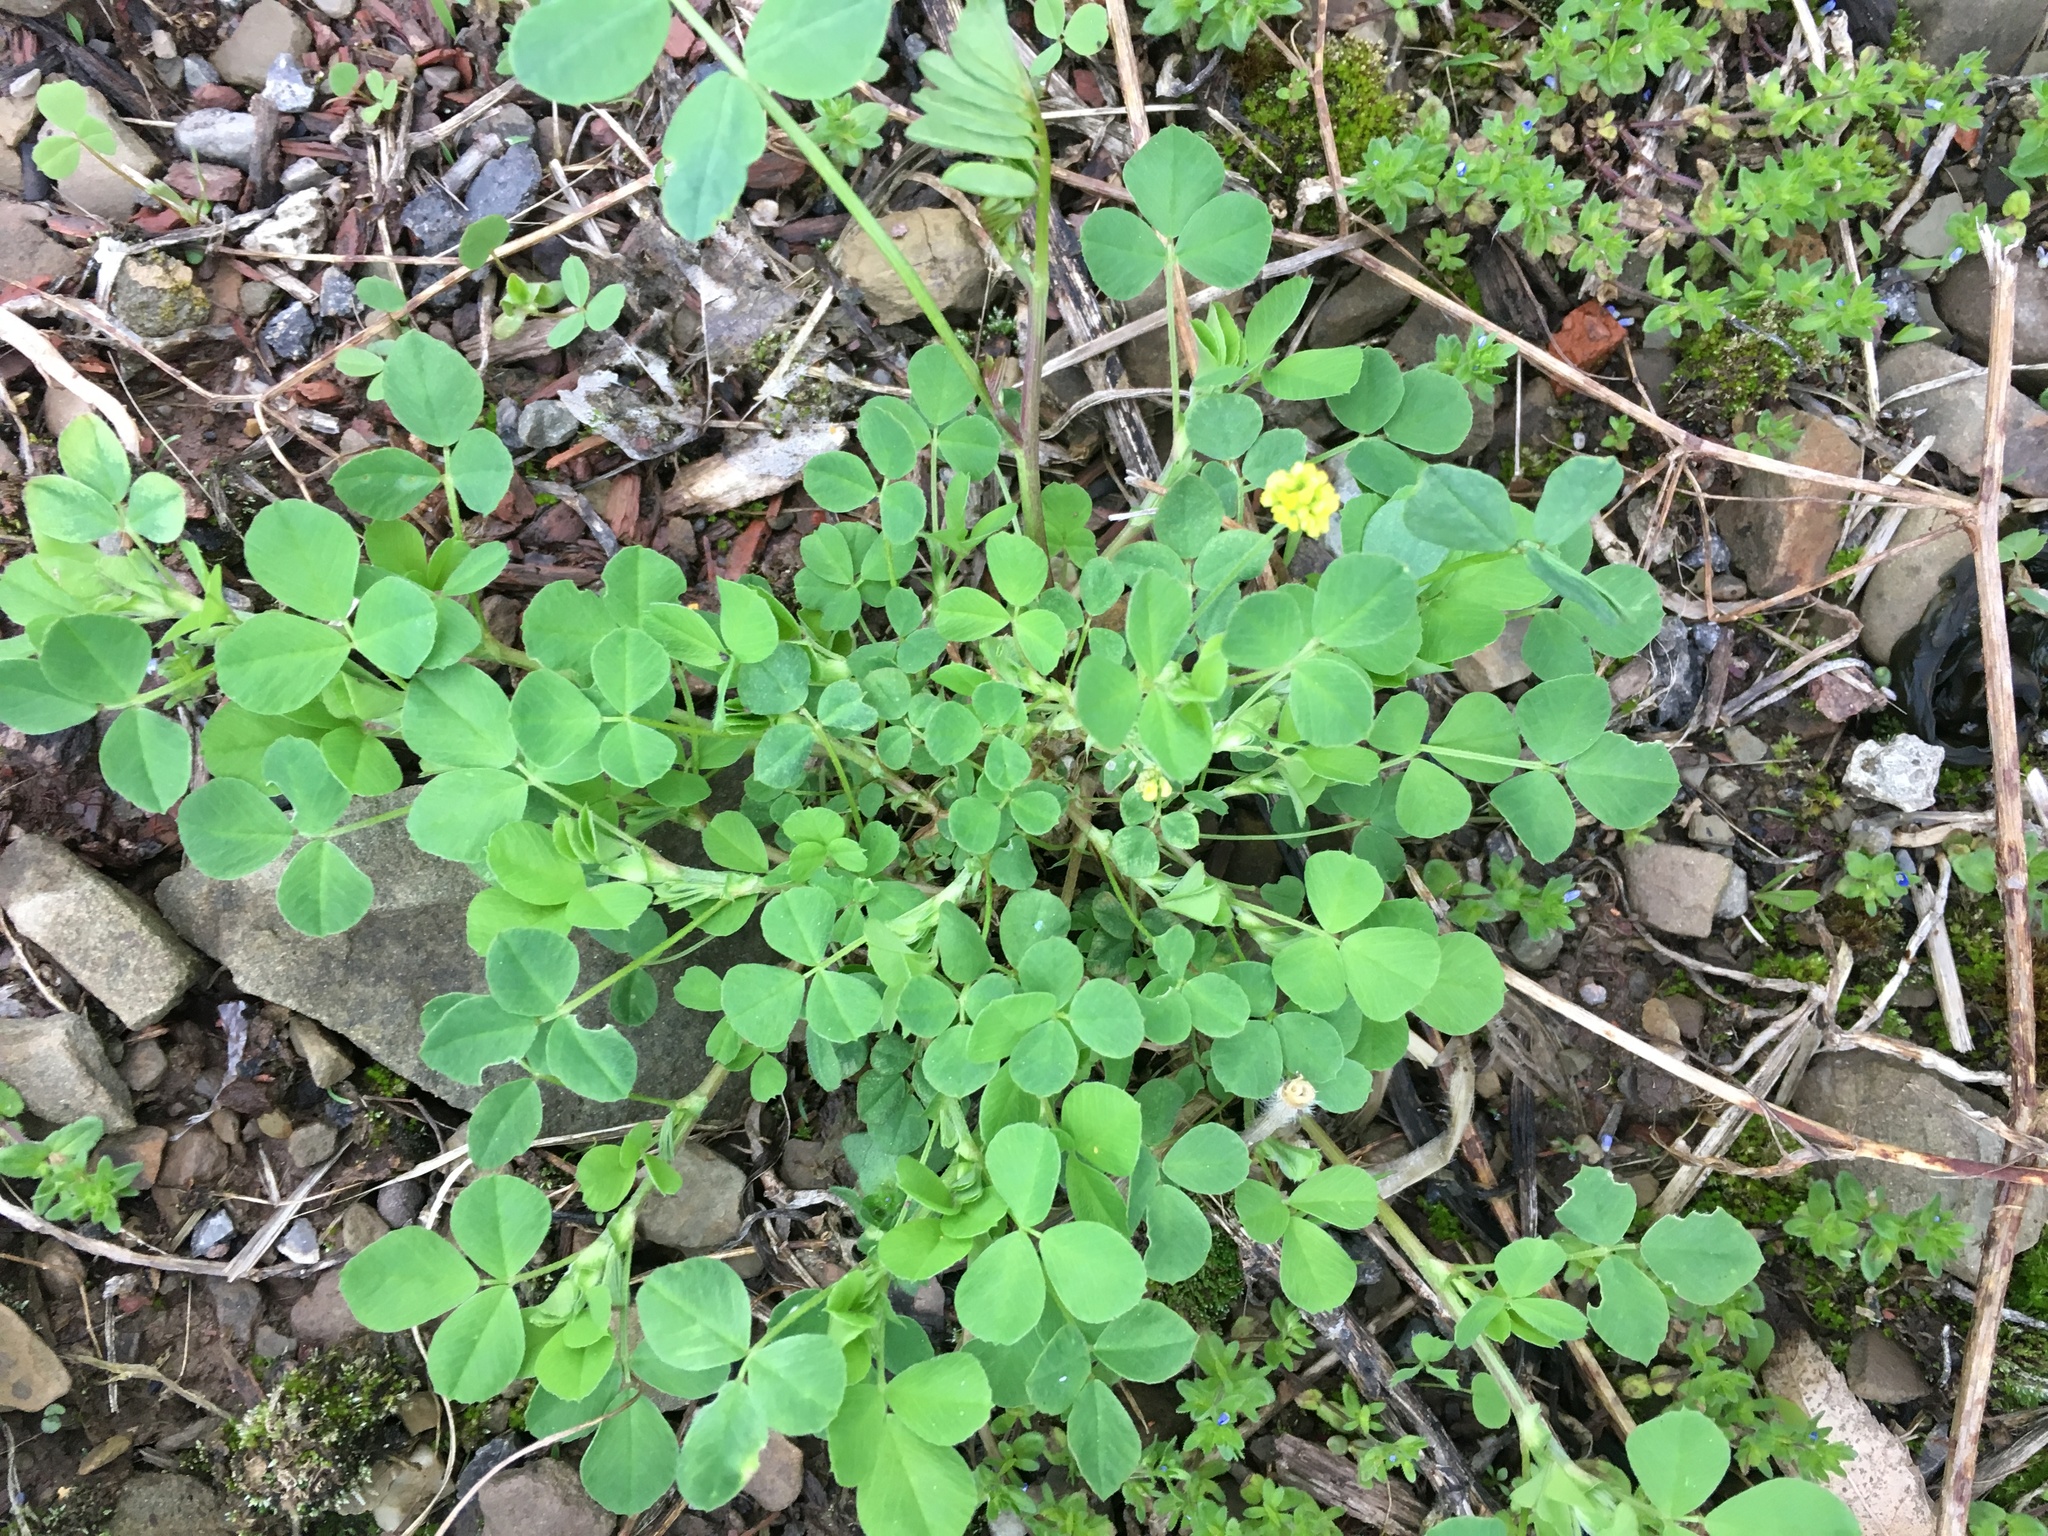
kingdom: Plantae
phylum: Tracheophyta
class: Magnoliopsida
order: Fabales
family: Fabaceae
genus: Medicago
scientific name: Medicago lupulina
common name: Black medick
